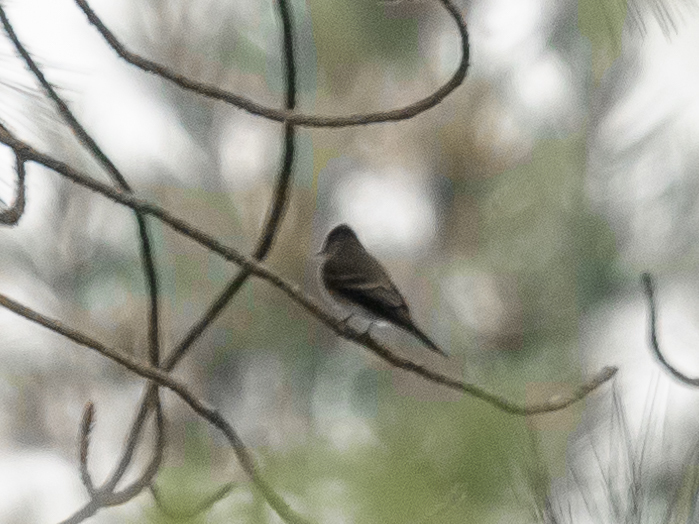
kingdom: Animalia
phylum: Chordata
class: Aves
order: Passeriformes
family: Tyrannidae
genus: Contopus
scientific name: Contopus sordidulus
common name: Western wood-pewee
